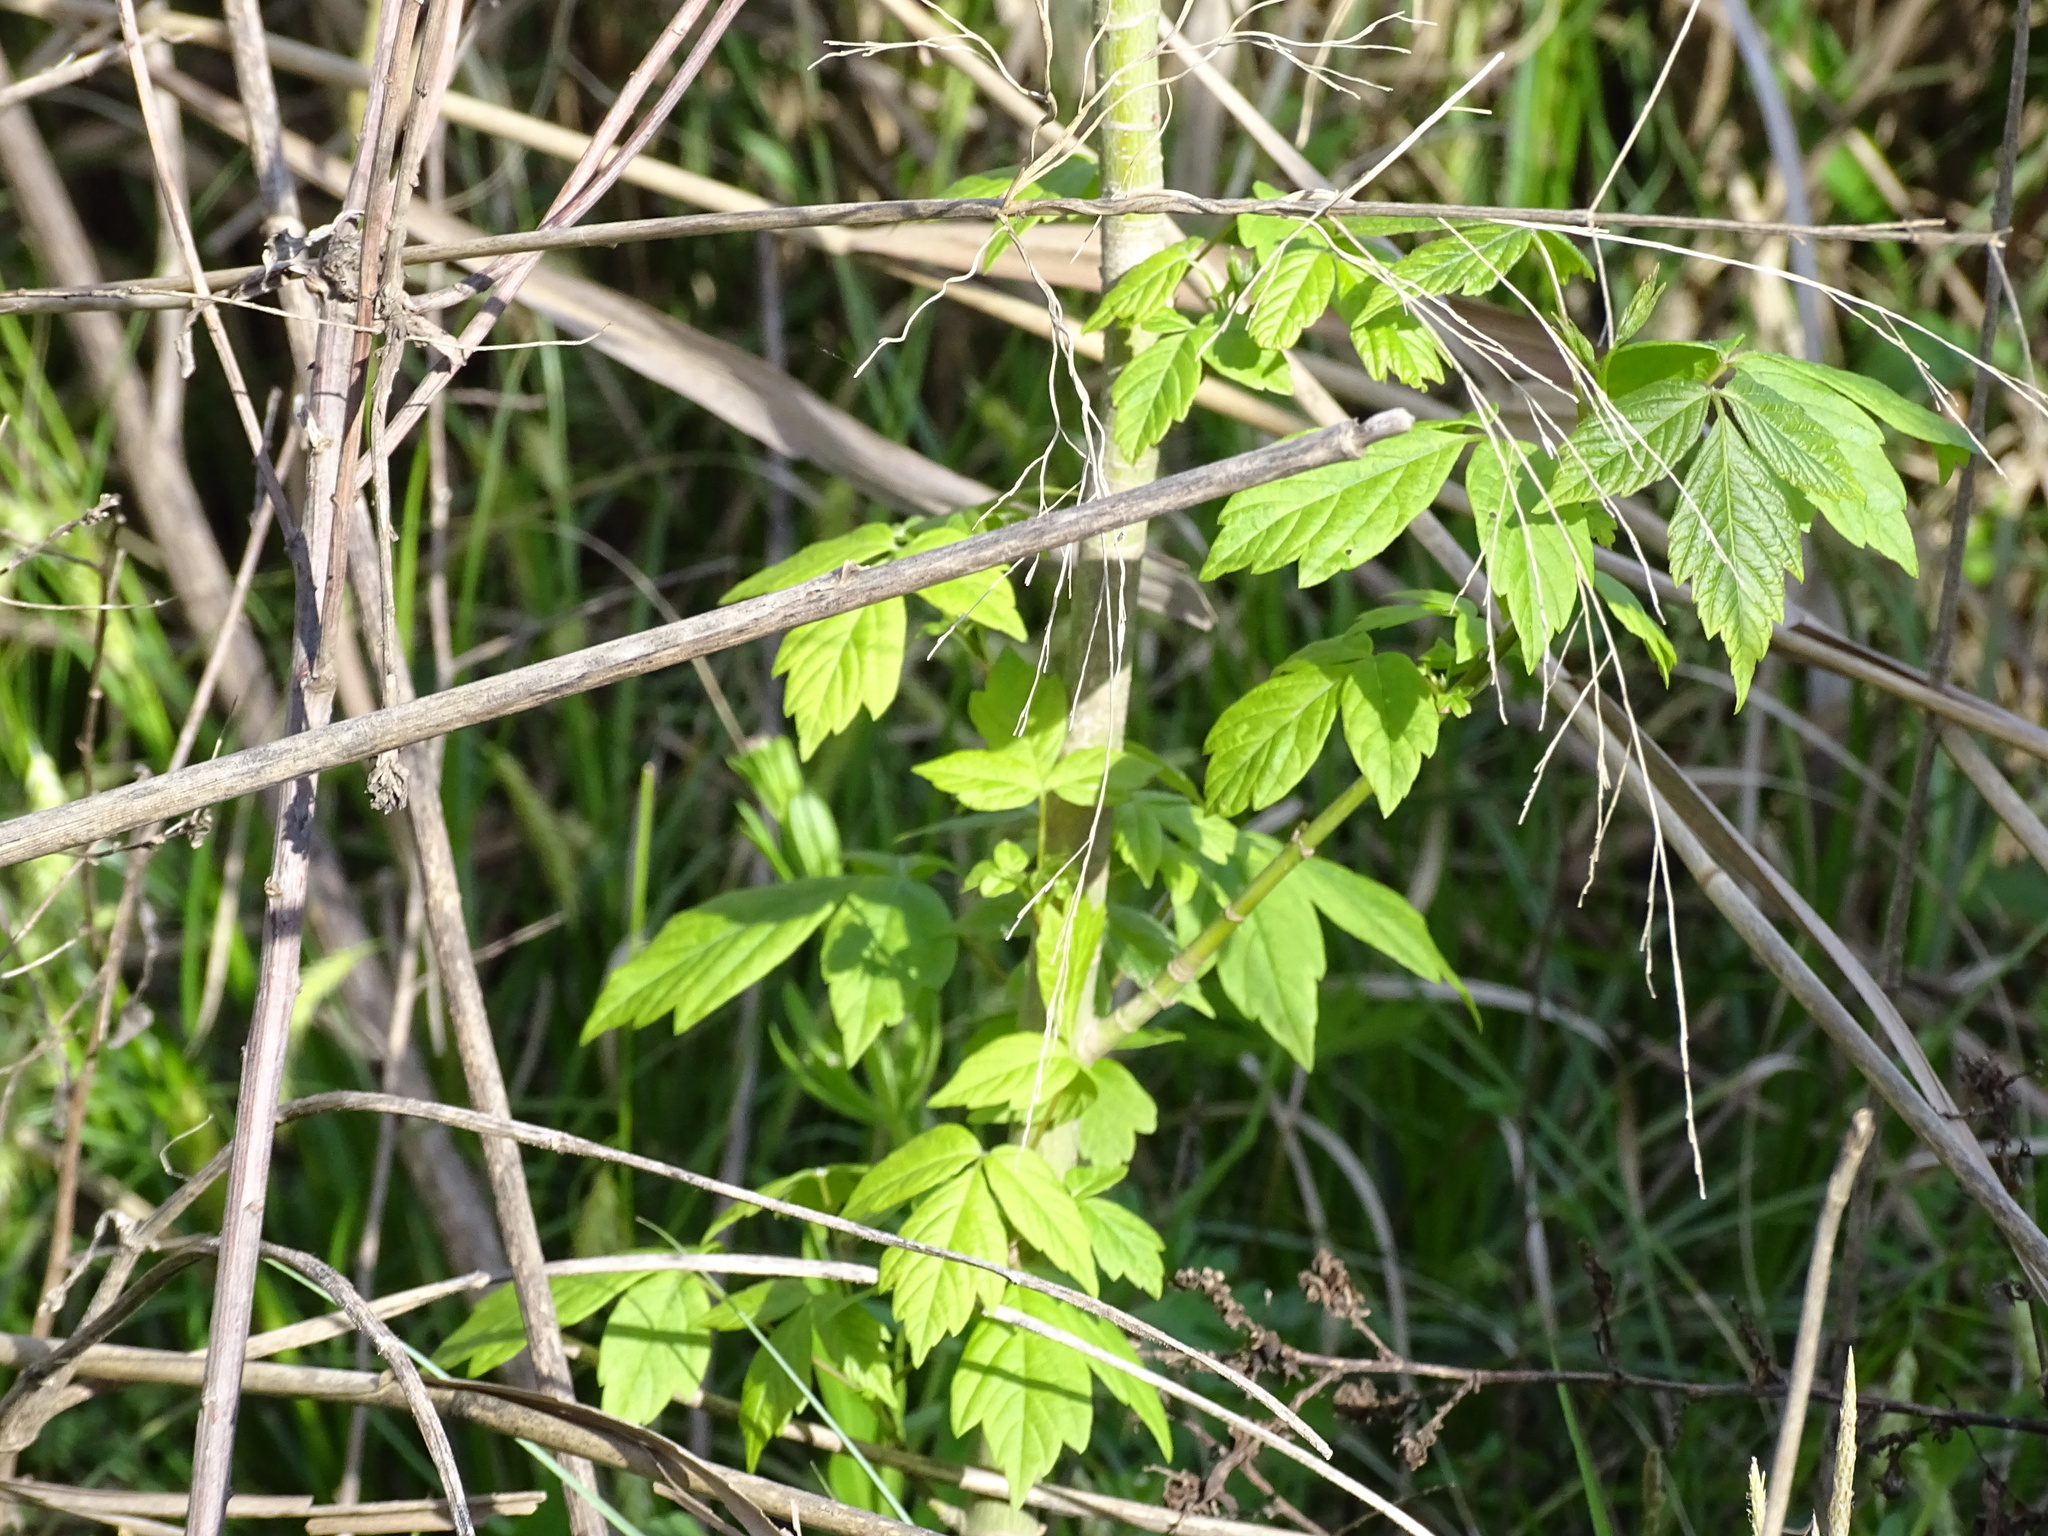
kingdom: Plantae
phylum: Tracheophyta
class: Magnoliopsida
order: Sapindales
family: Sapindaceae
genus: Acer
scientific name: Acer negundo
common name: Ashleaf maple
